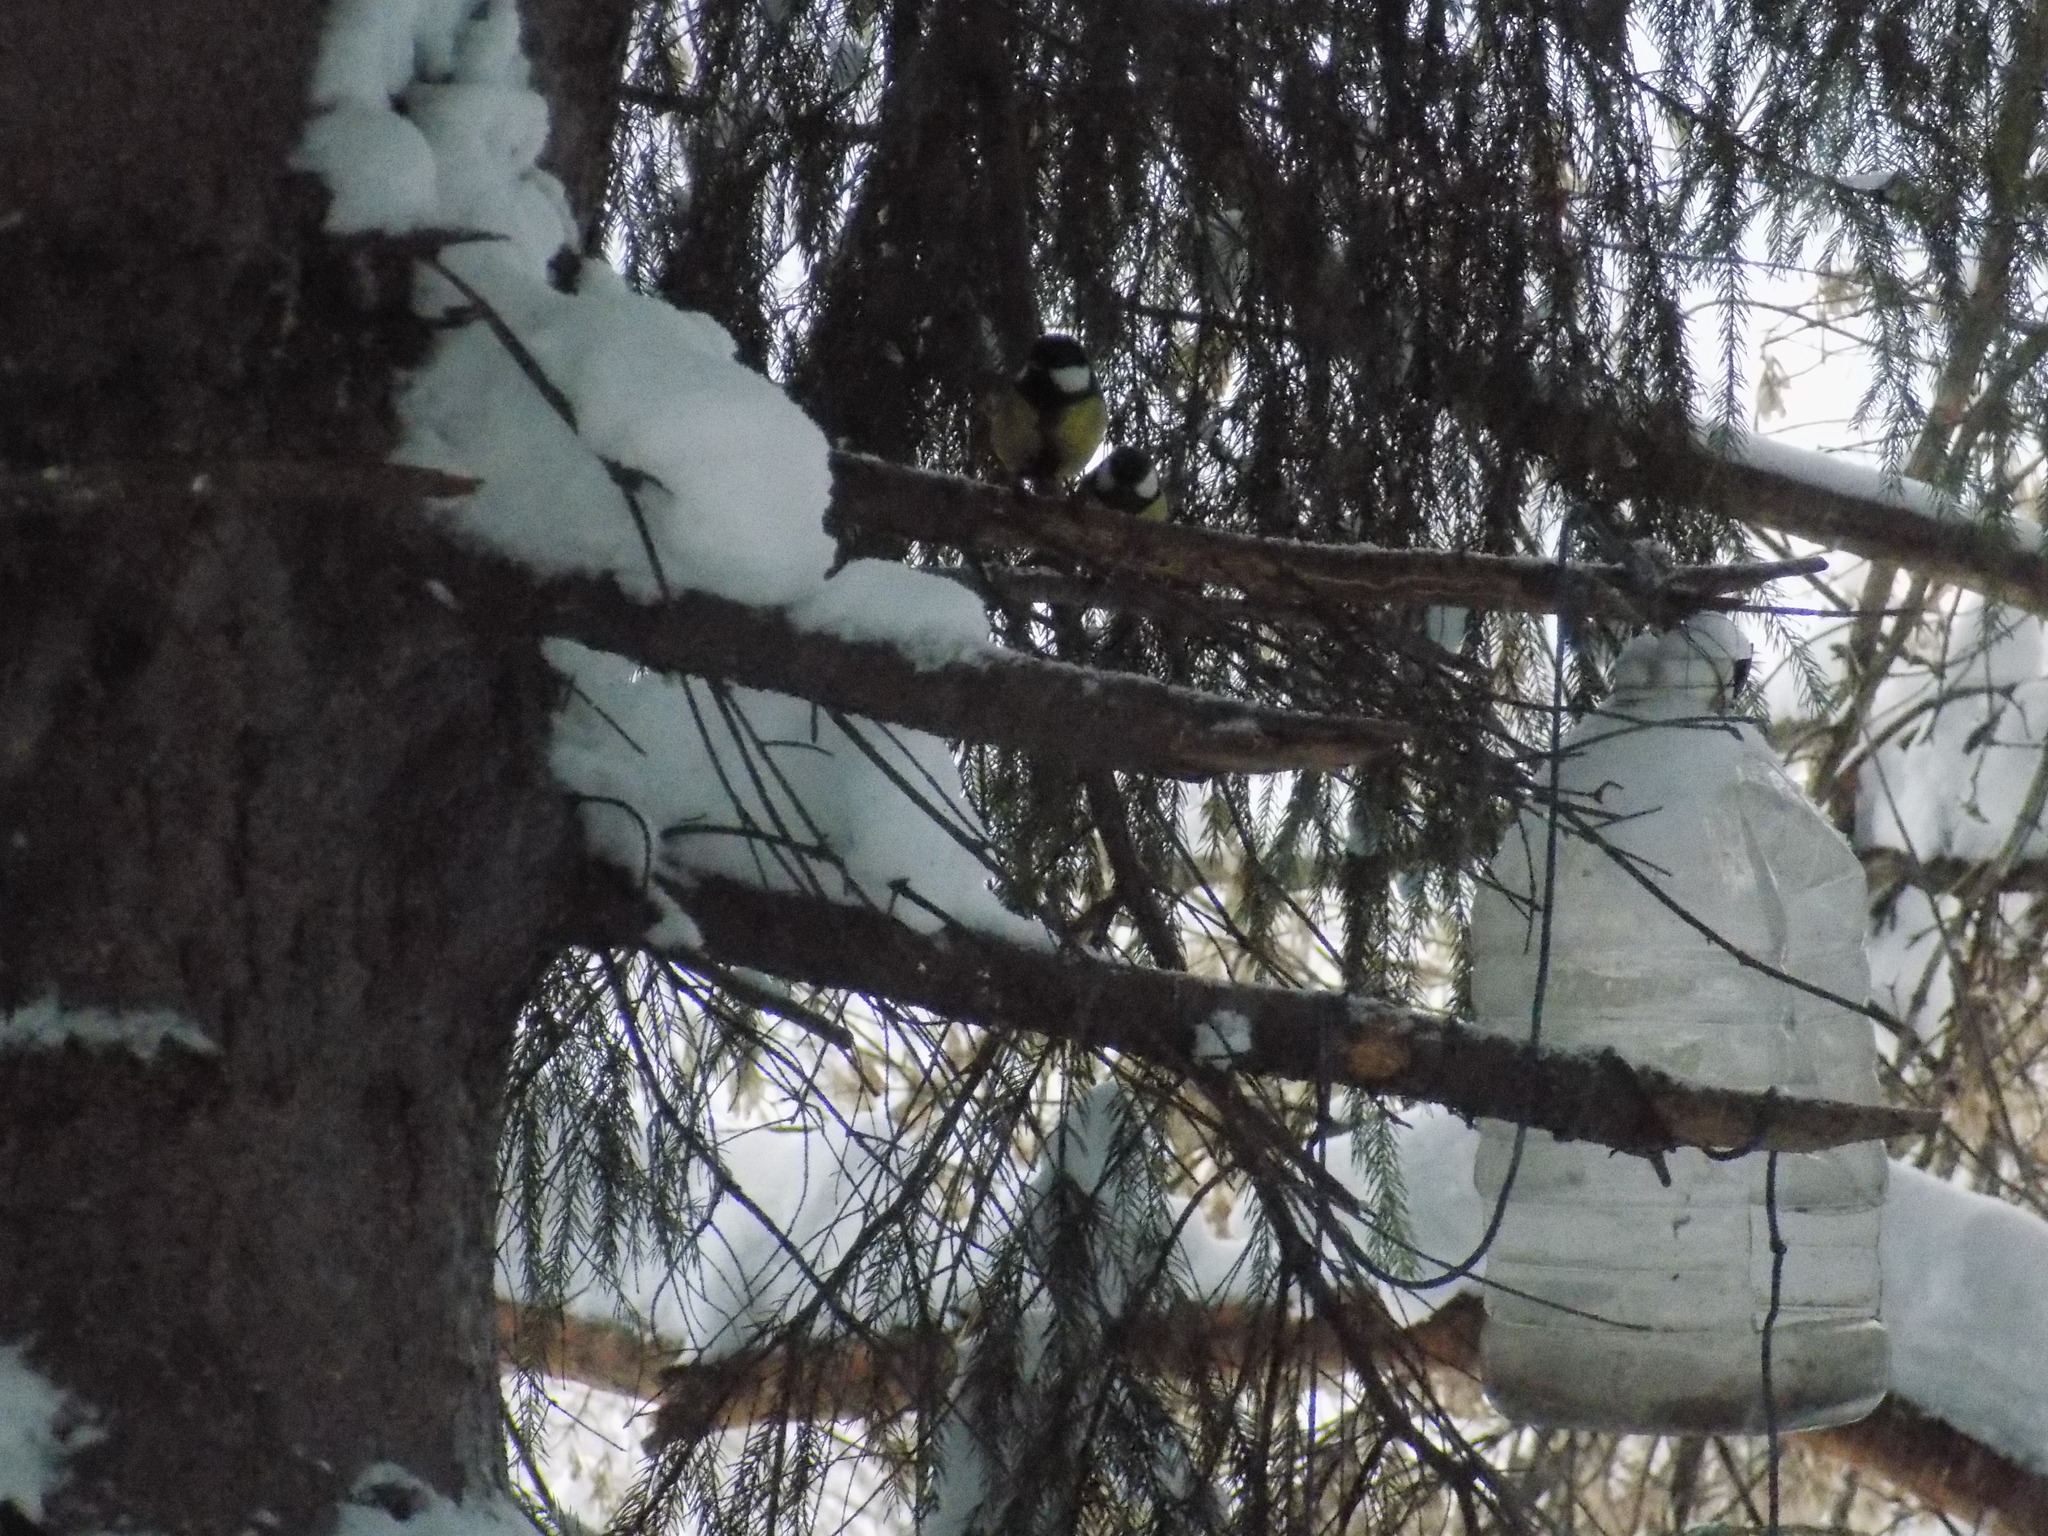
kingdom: Animalia
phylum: Chordata
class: Aves
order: Passeriformes
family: Paridae
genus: Parus
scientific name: Parus major
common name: Great tit
